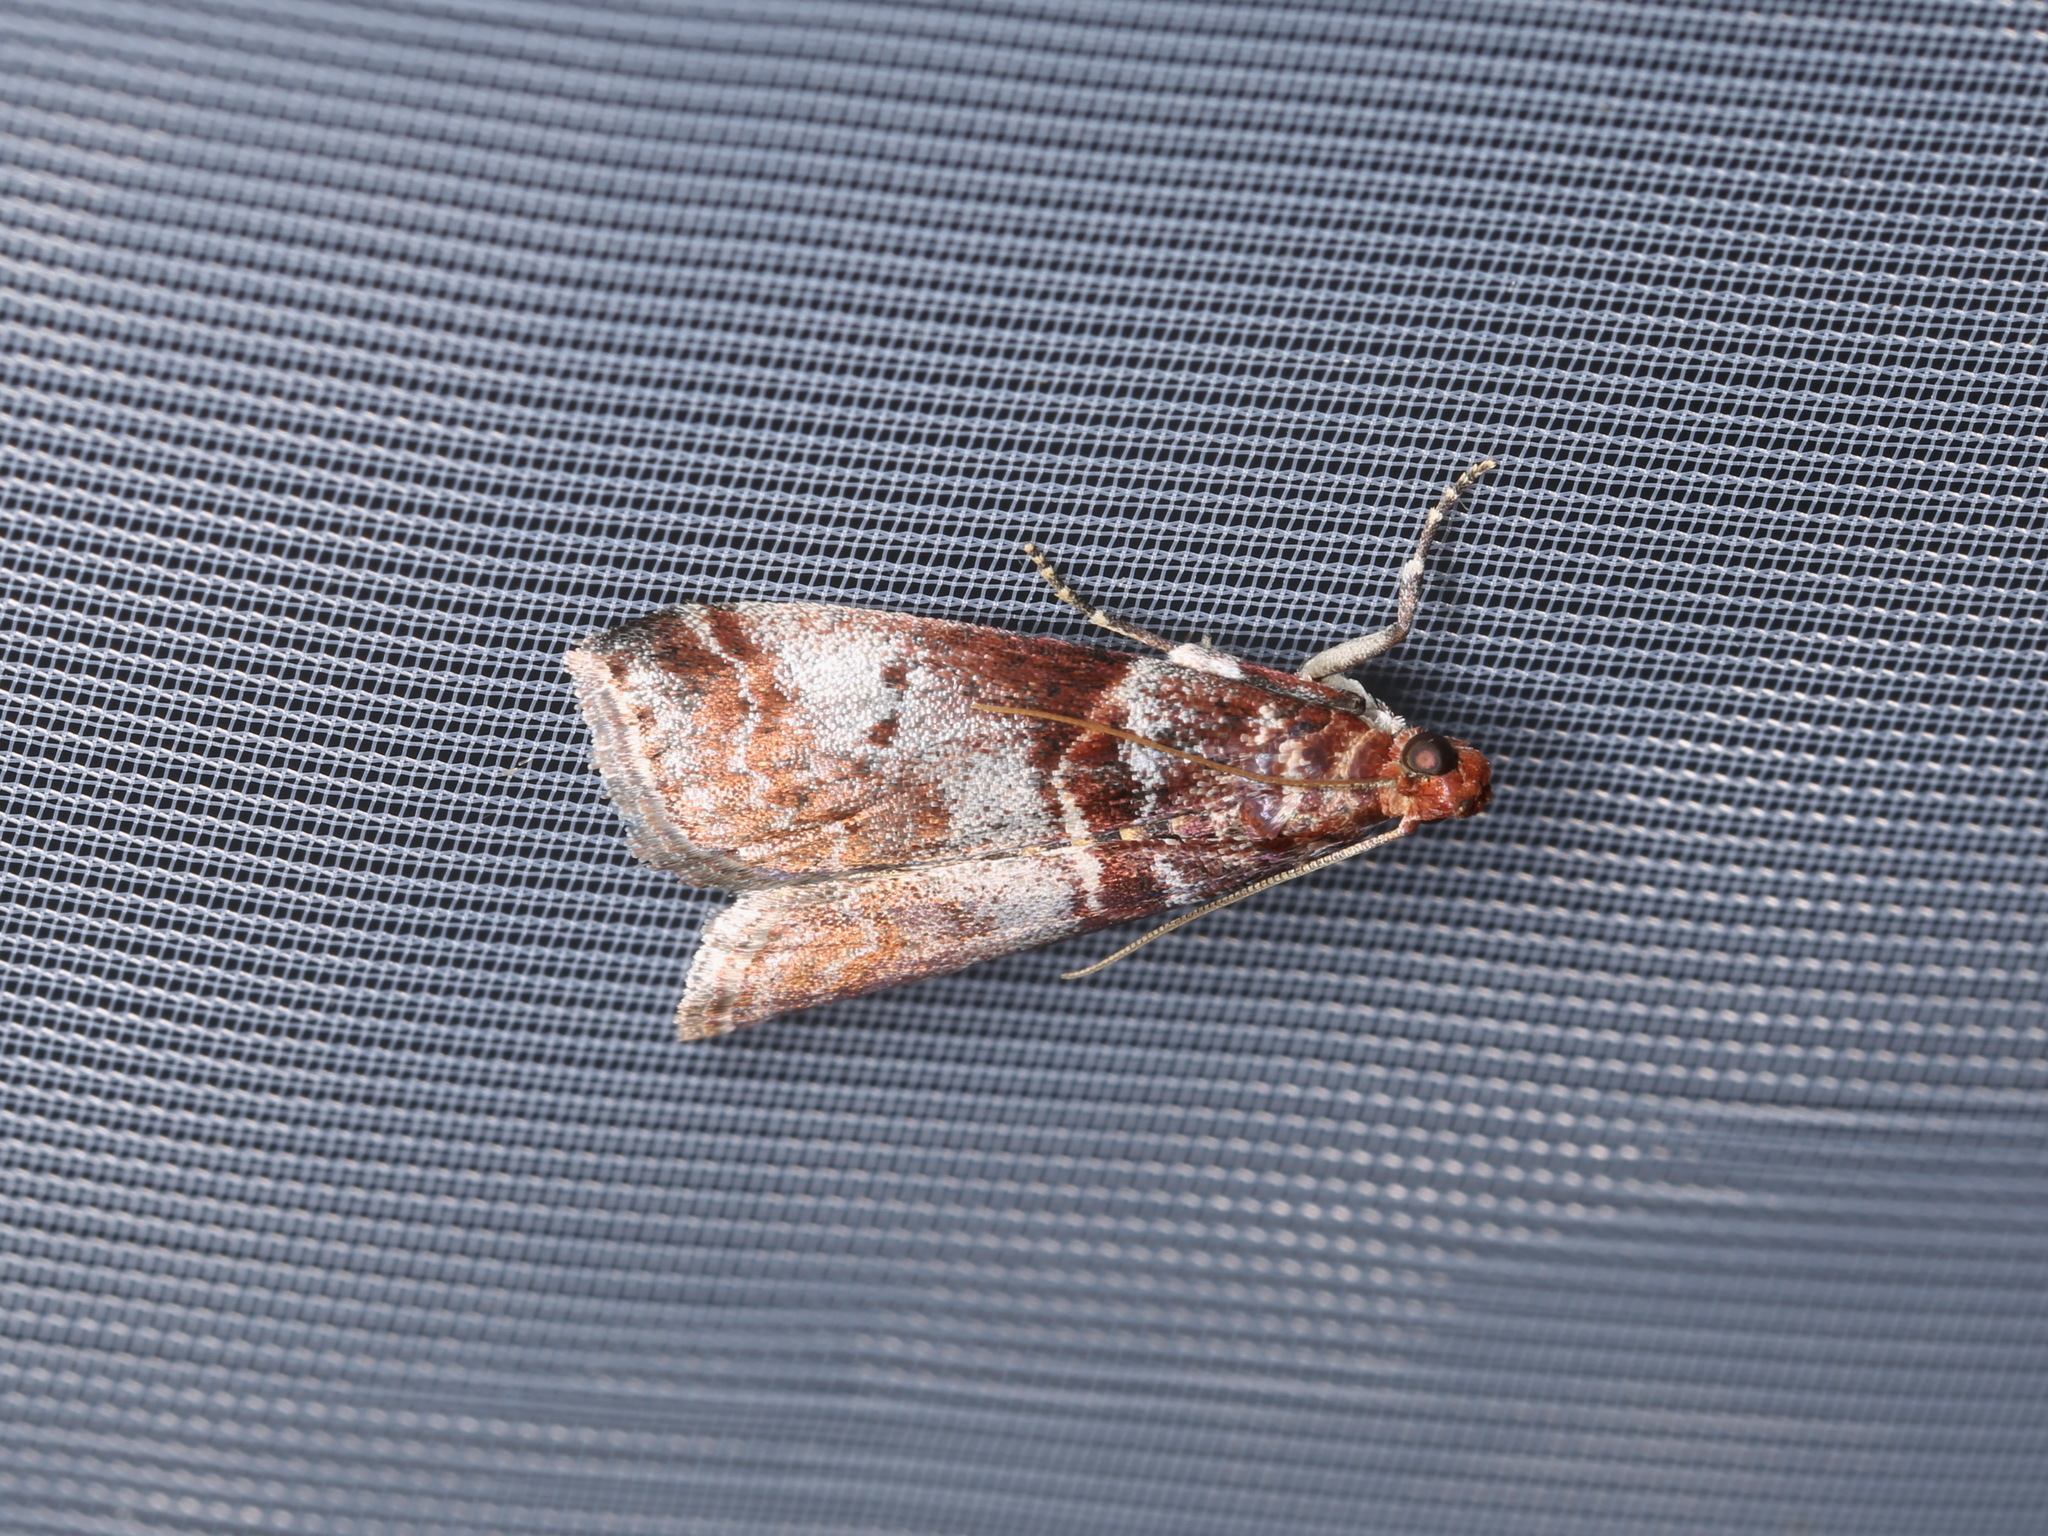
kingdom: Animalia
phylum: Arthropoda
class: Insecta
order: Lepidoptera
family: Pyralidae
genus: Acrobasis
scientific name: Acrobasis advenella
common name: Grey knot-horn
